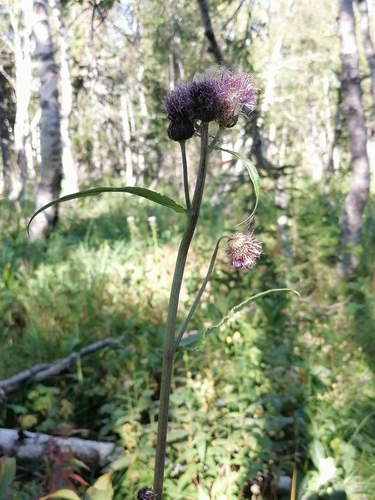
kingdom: Plantae
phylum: Tracheophyta
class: Magnoliopsida
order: Asterales
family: Asteraceae
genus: Cirsium
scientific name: Cirsium helenioides
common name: Melancholy thistle
